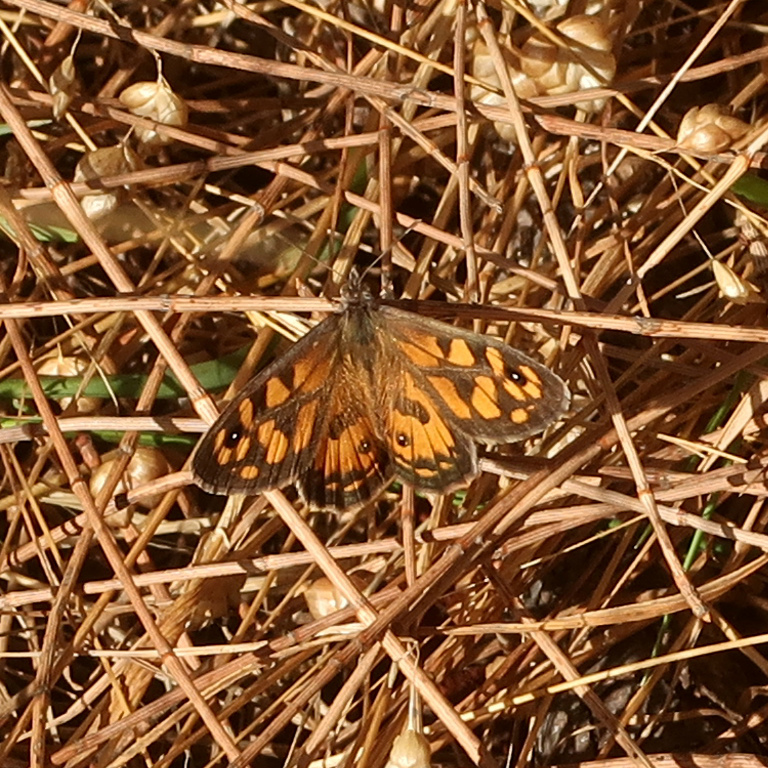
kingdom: Animalia
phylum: Arthropoda
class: Insecta
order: Lepidoptera
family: Nymphalidae
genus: Geitoneura
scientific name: Geitoneura klugii
